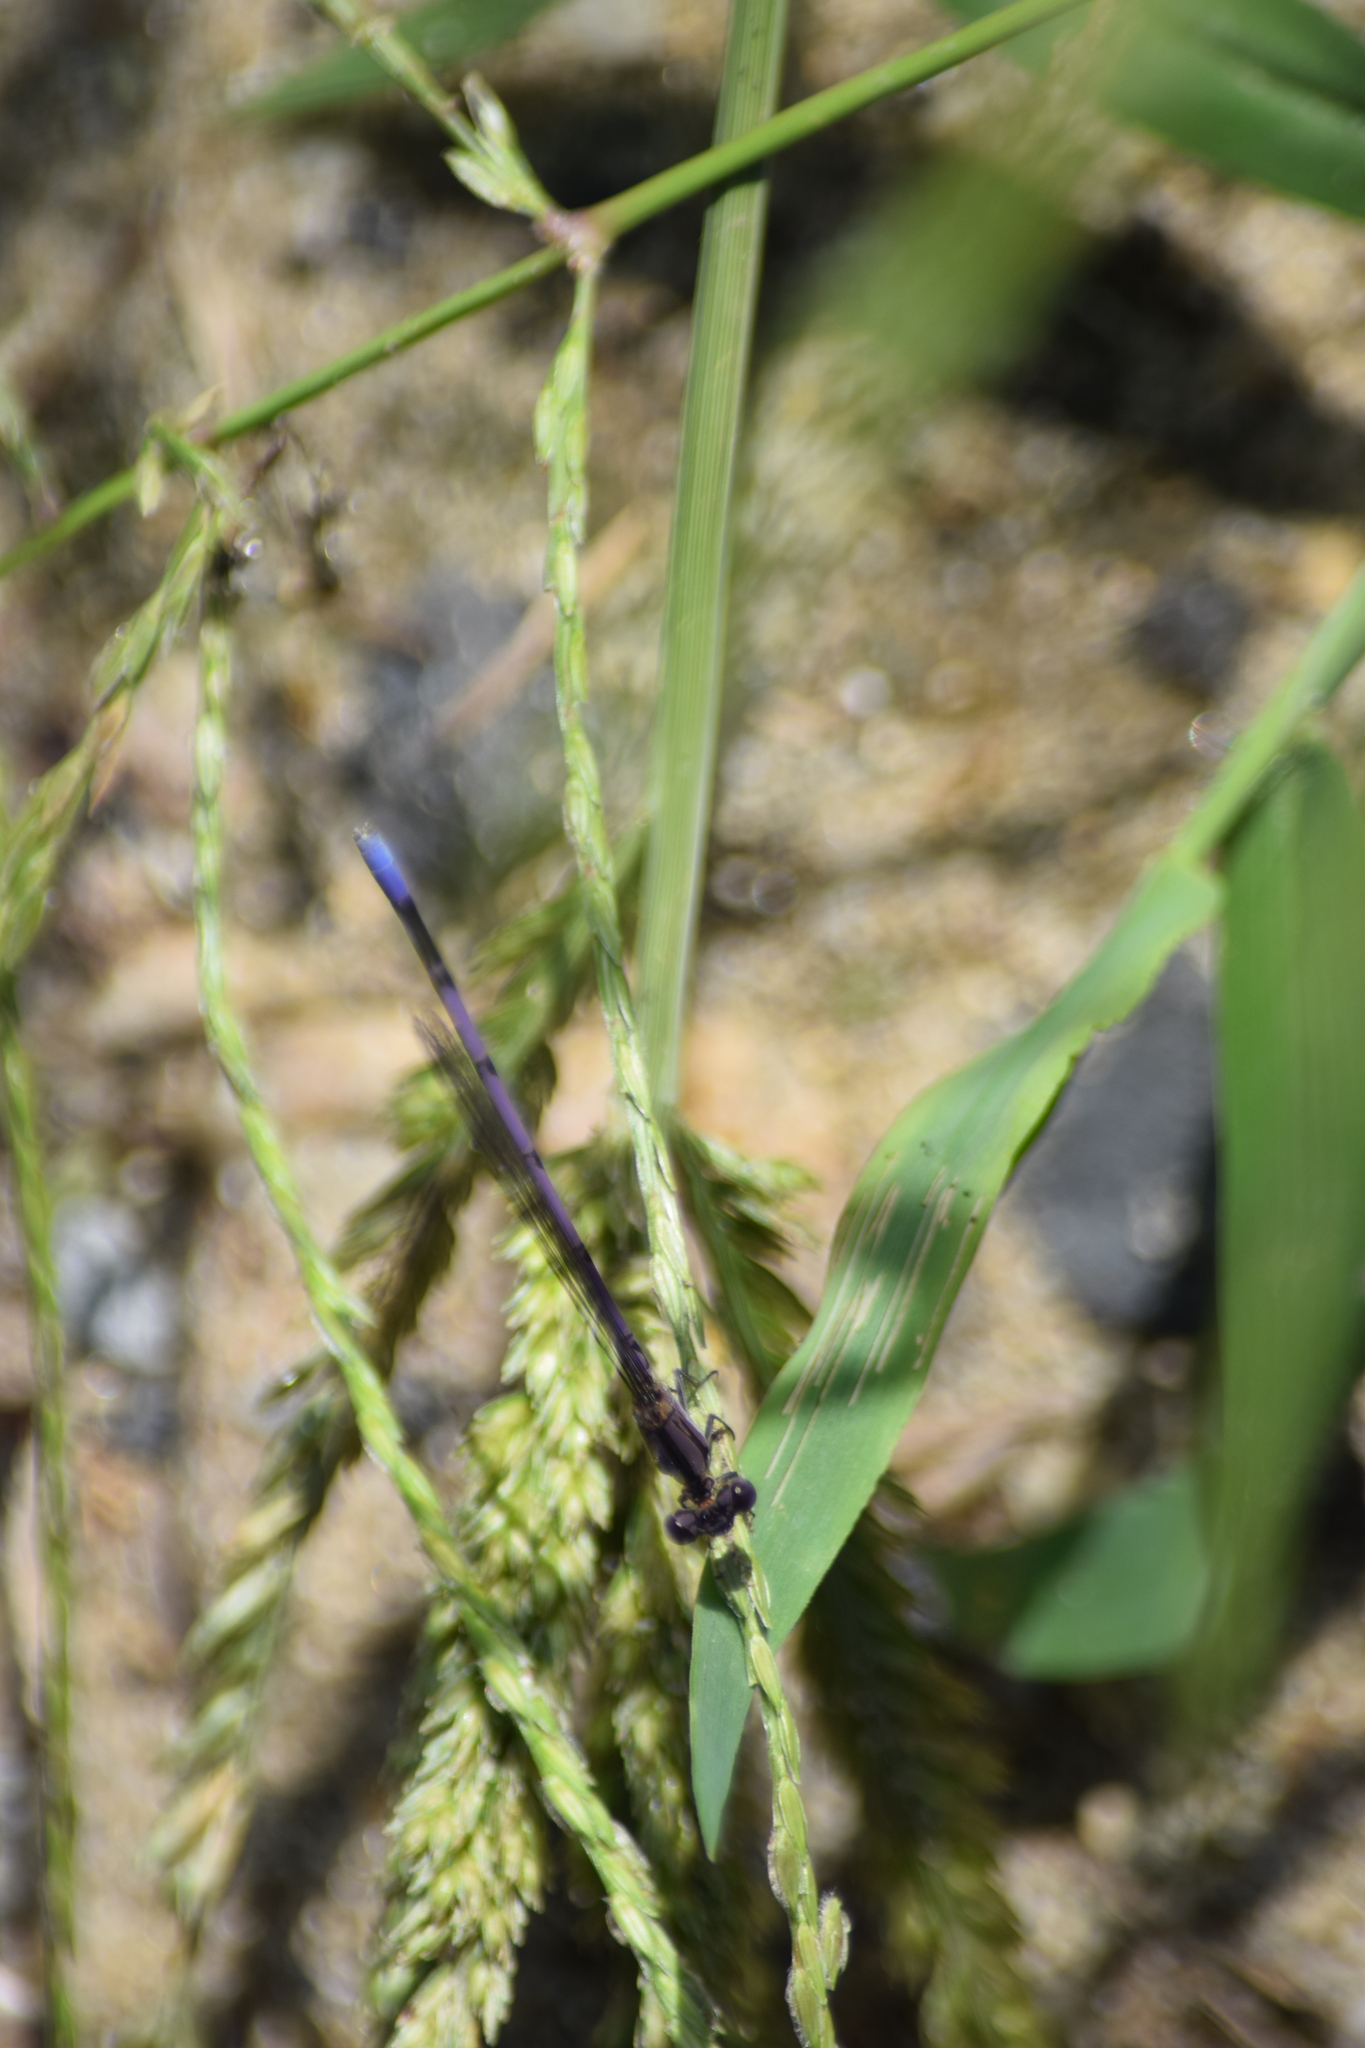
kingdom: Animalia
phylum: Arthropoda
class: Insecta
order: Odonata
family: Coenagrionidae
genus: Argia
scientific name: Argia fumipennis
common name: Variable dancer
